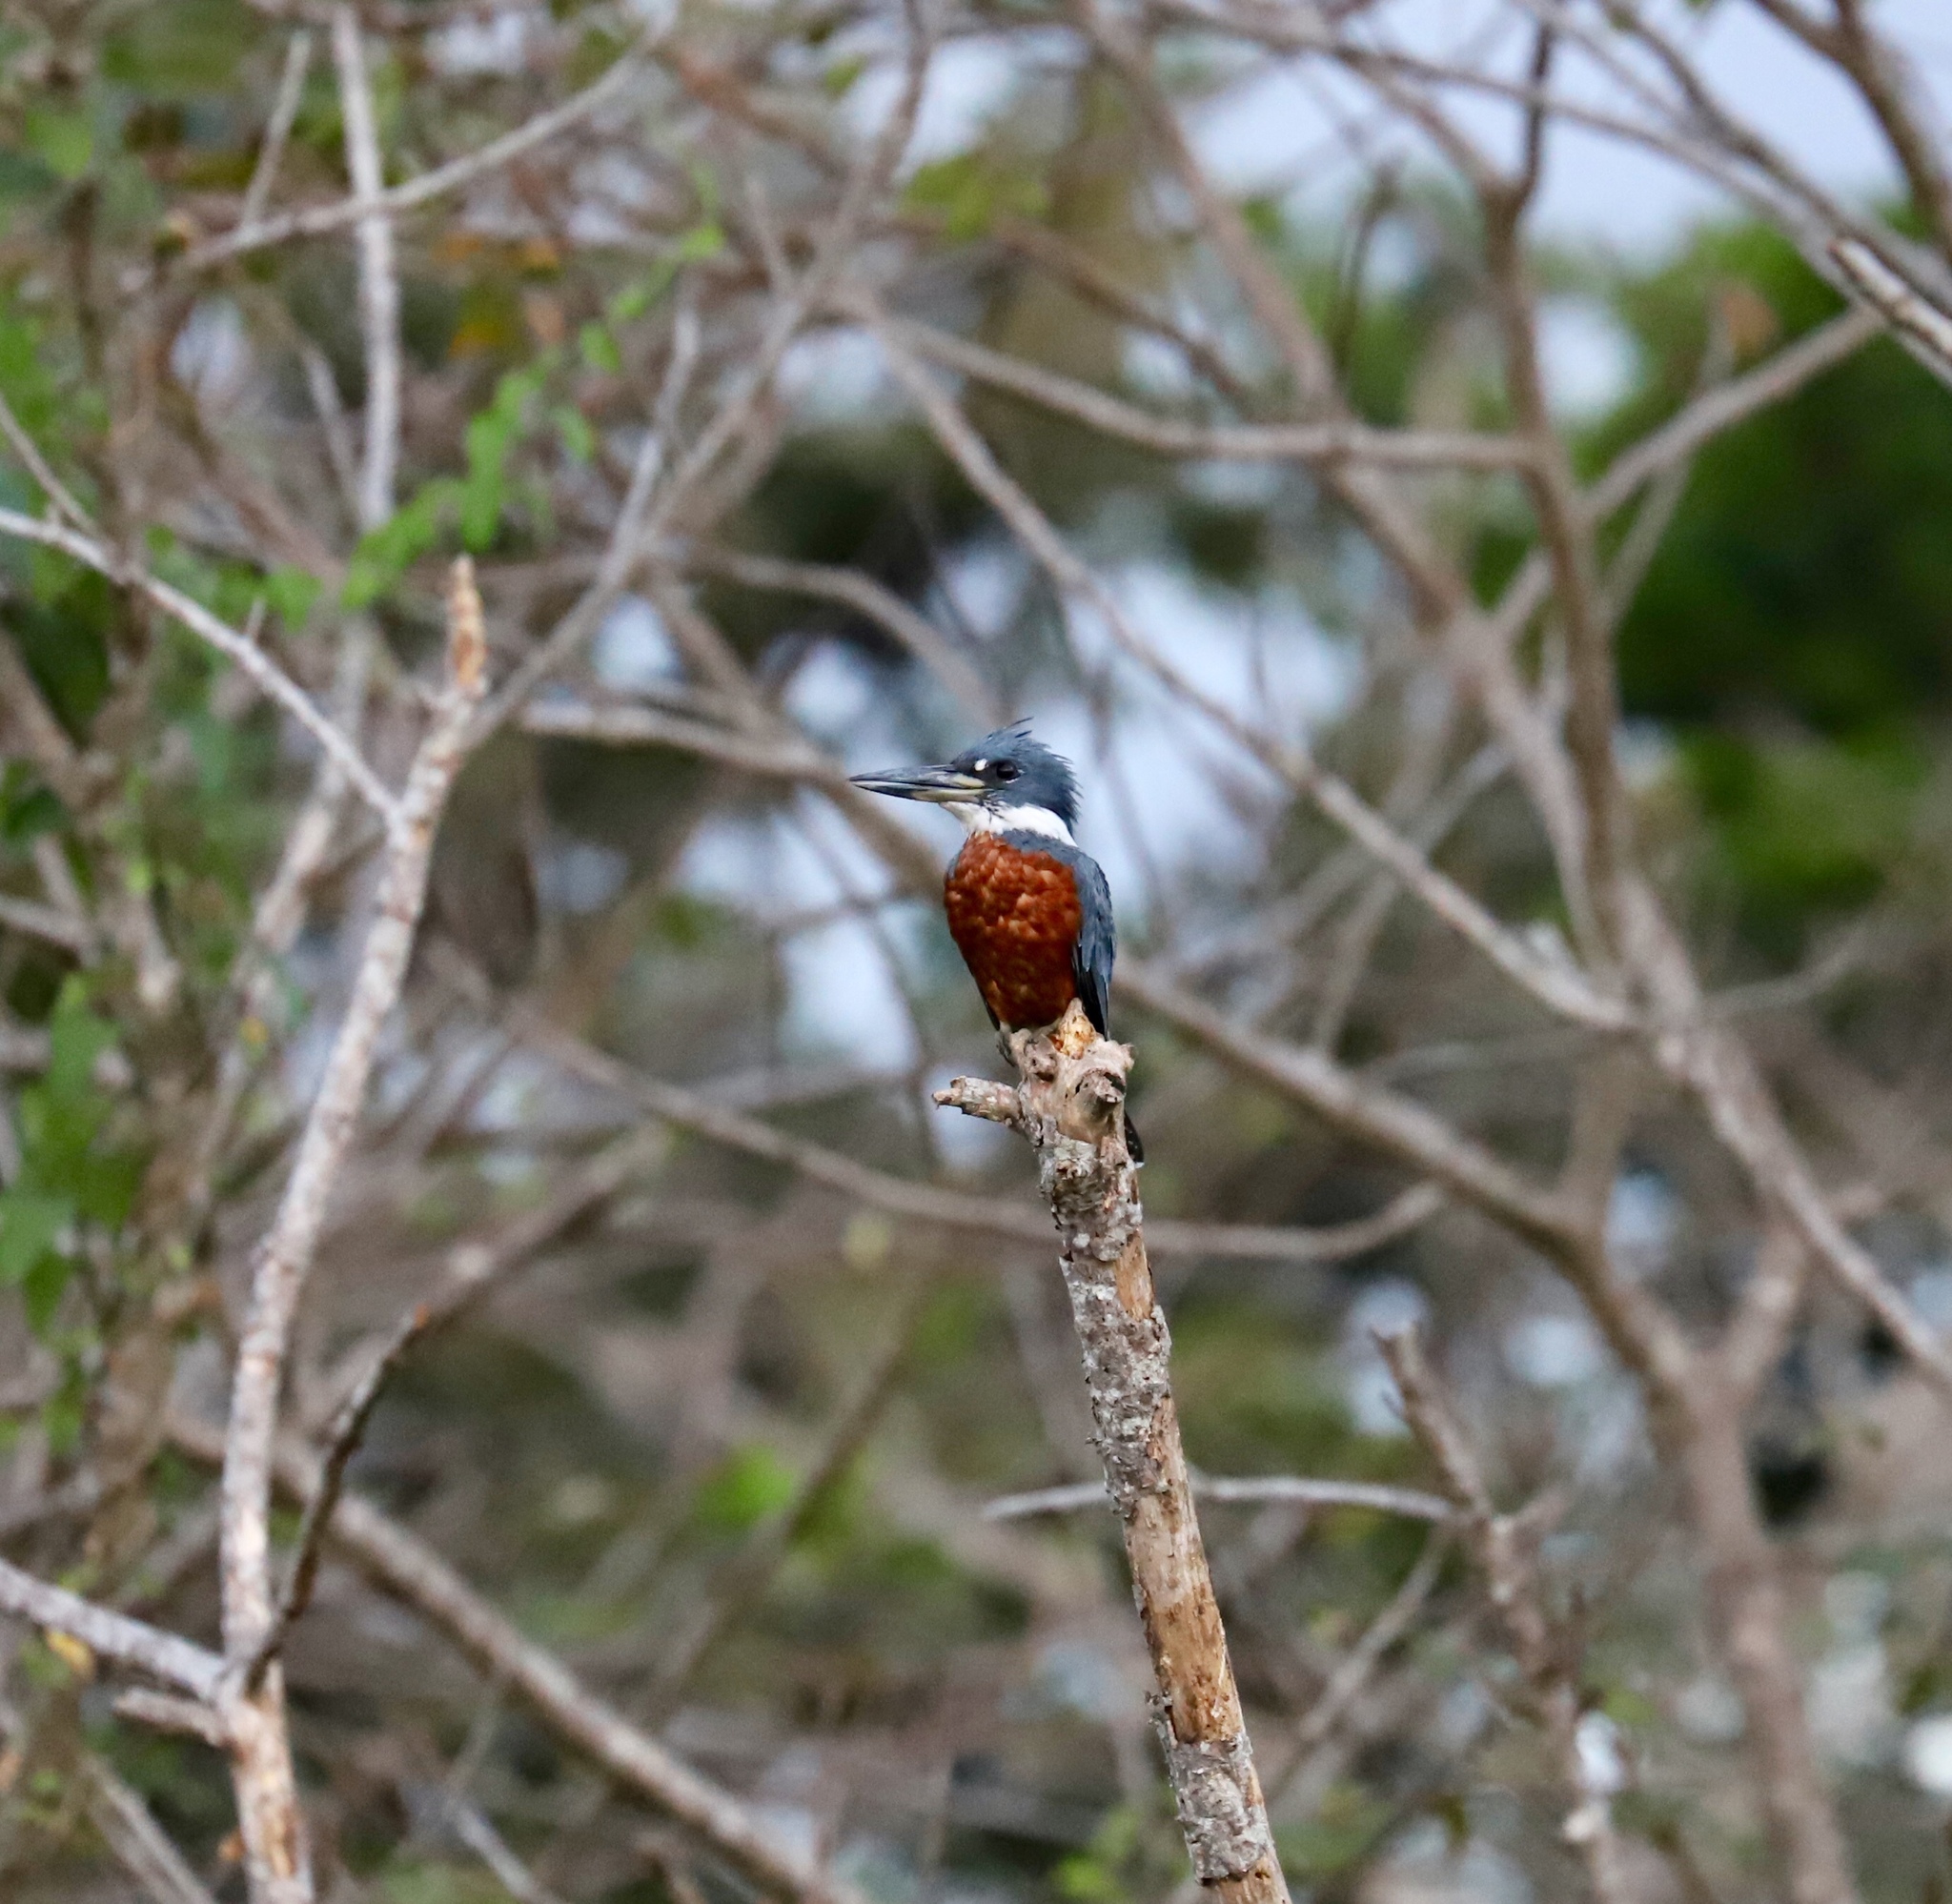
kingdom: Animalia
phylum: Chordata
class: Aves
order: Coraciiformes
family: Alcedinidae
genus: Megaceryle
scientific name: Megaceryle torquata
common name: Ringed kingfisher
